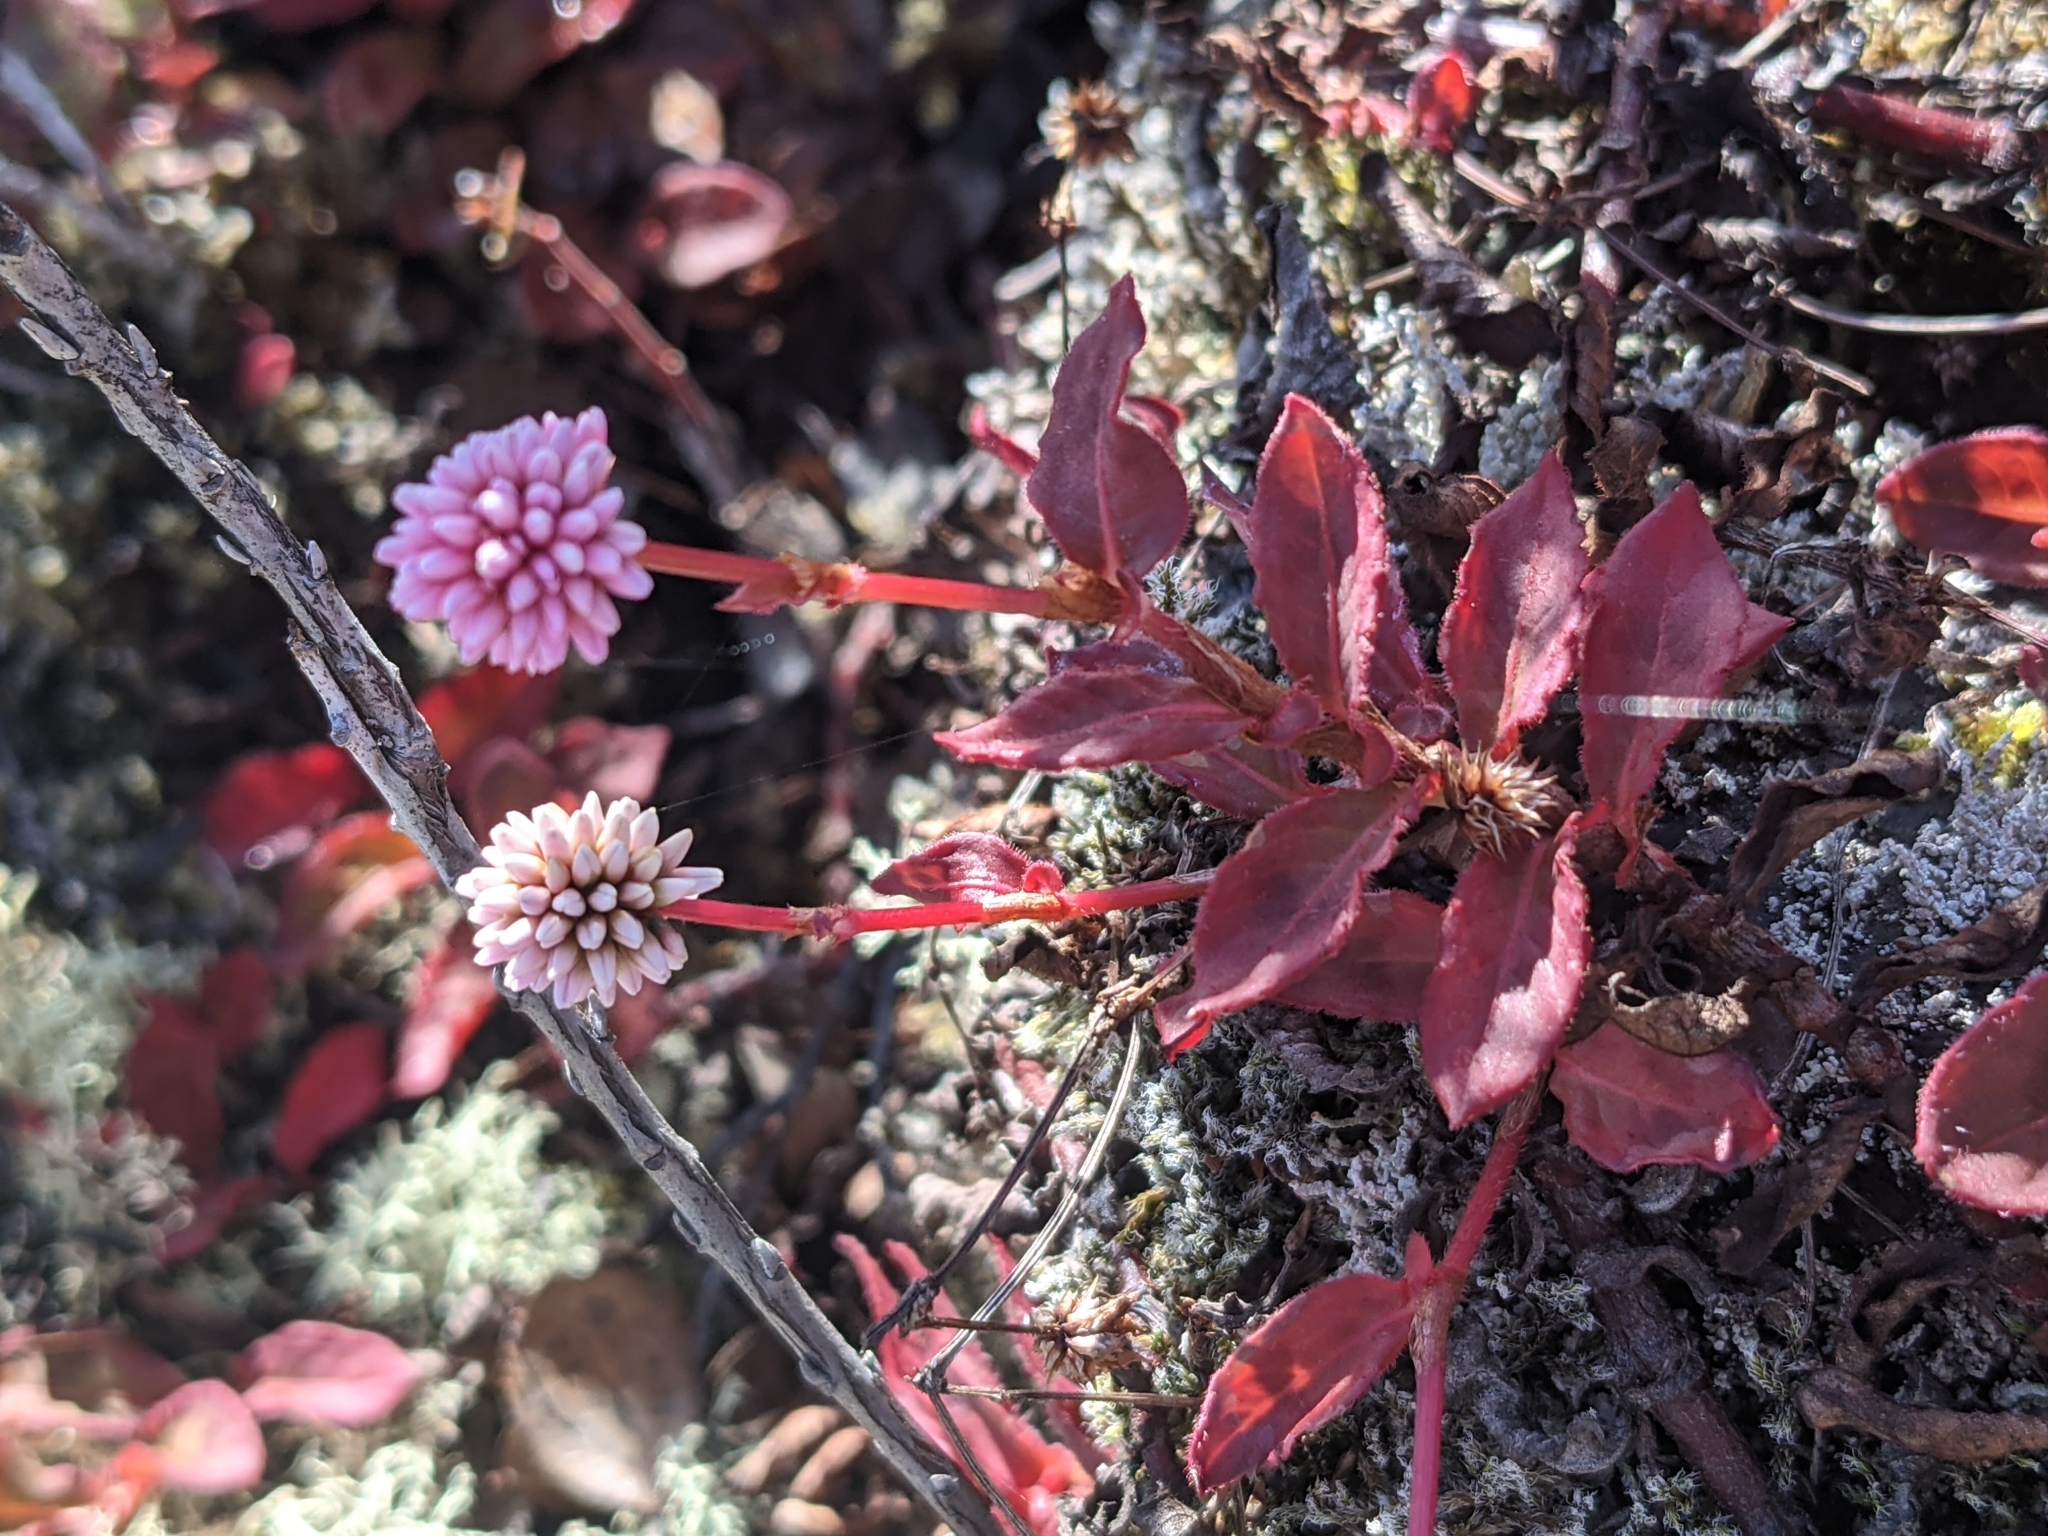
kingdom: Plantae
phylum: Tracheophyta
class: Magnoliopsida
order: Caryophyllales
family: Polygonaceae
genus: Persicaria
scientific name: Persicaria capitata
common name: Pinkhead smartweed
